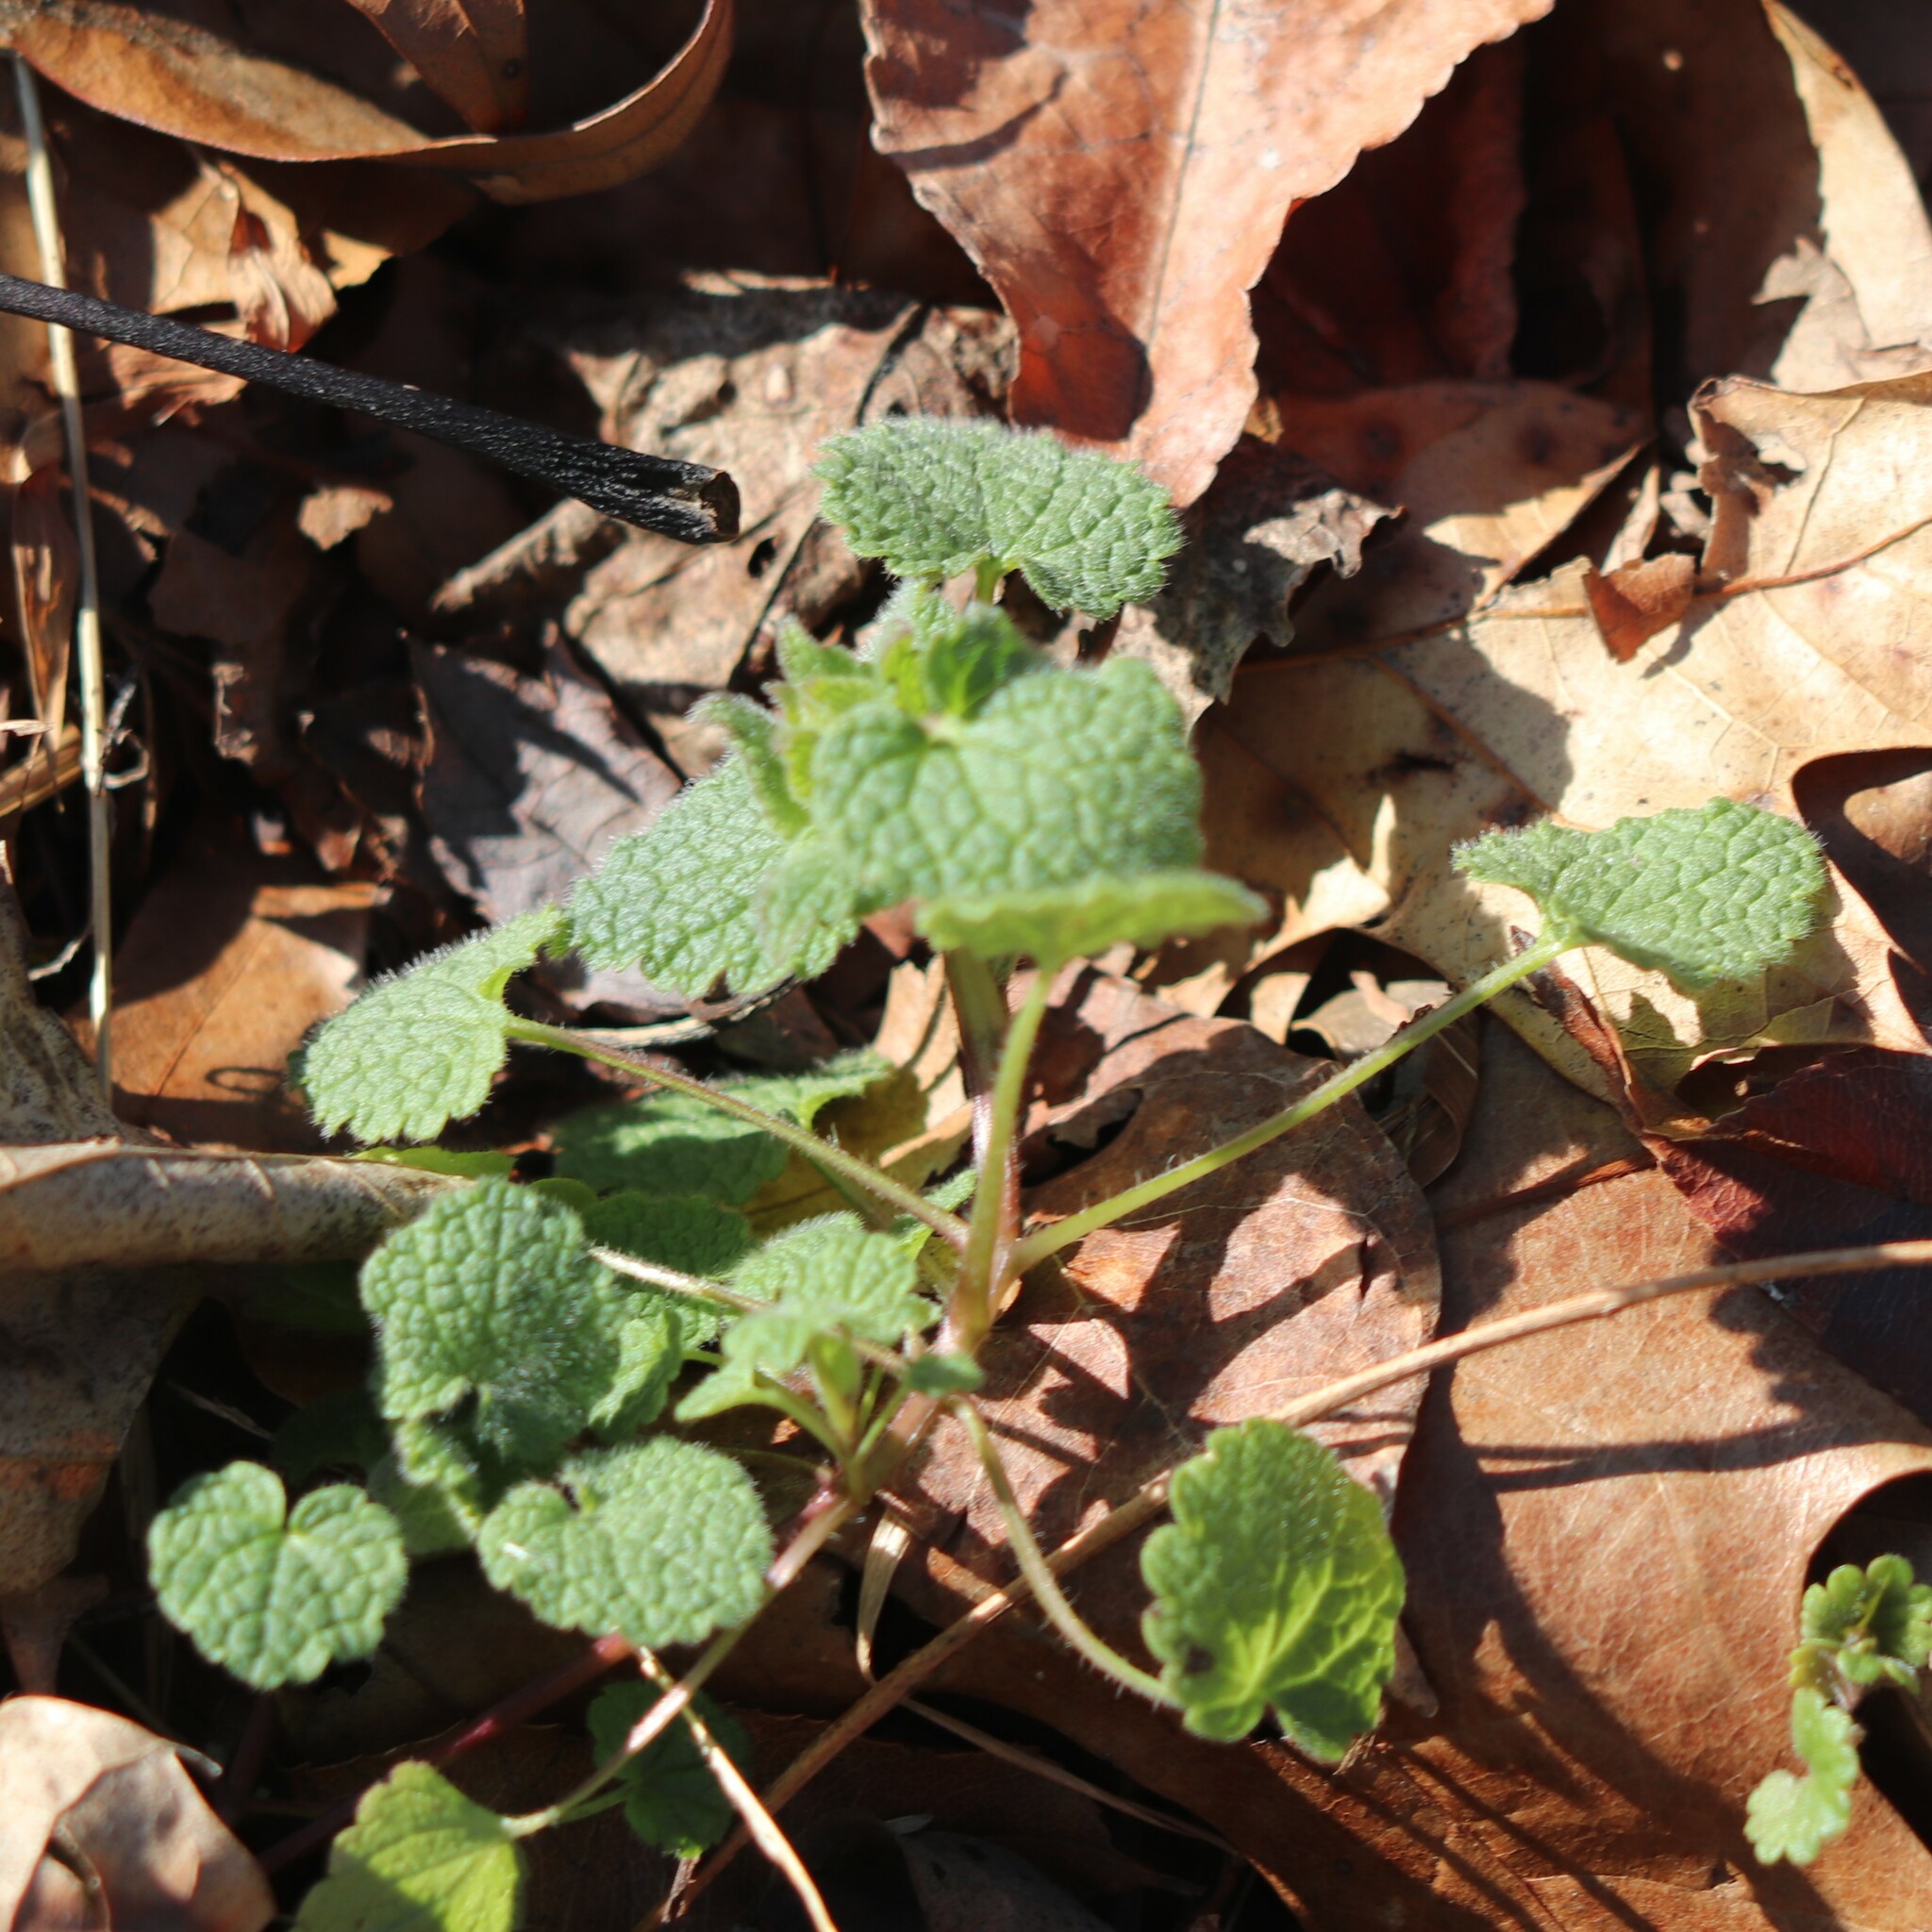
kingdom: Plantae
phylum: Tracheophyta
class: Magnoliopsida
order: Lamiales
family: Lamiaceae
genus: Lamium
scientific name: Lamium purpureum
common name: Red dead-nettle
